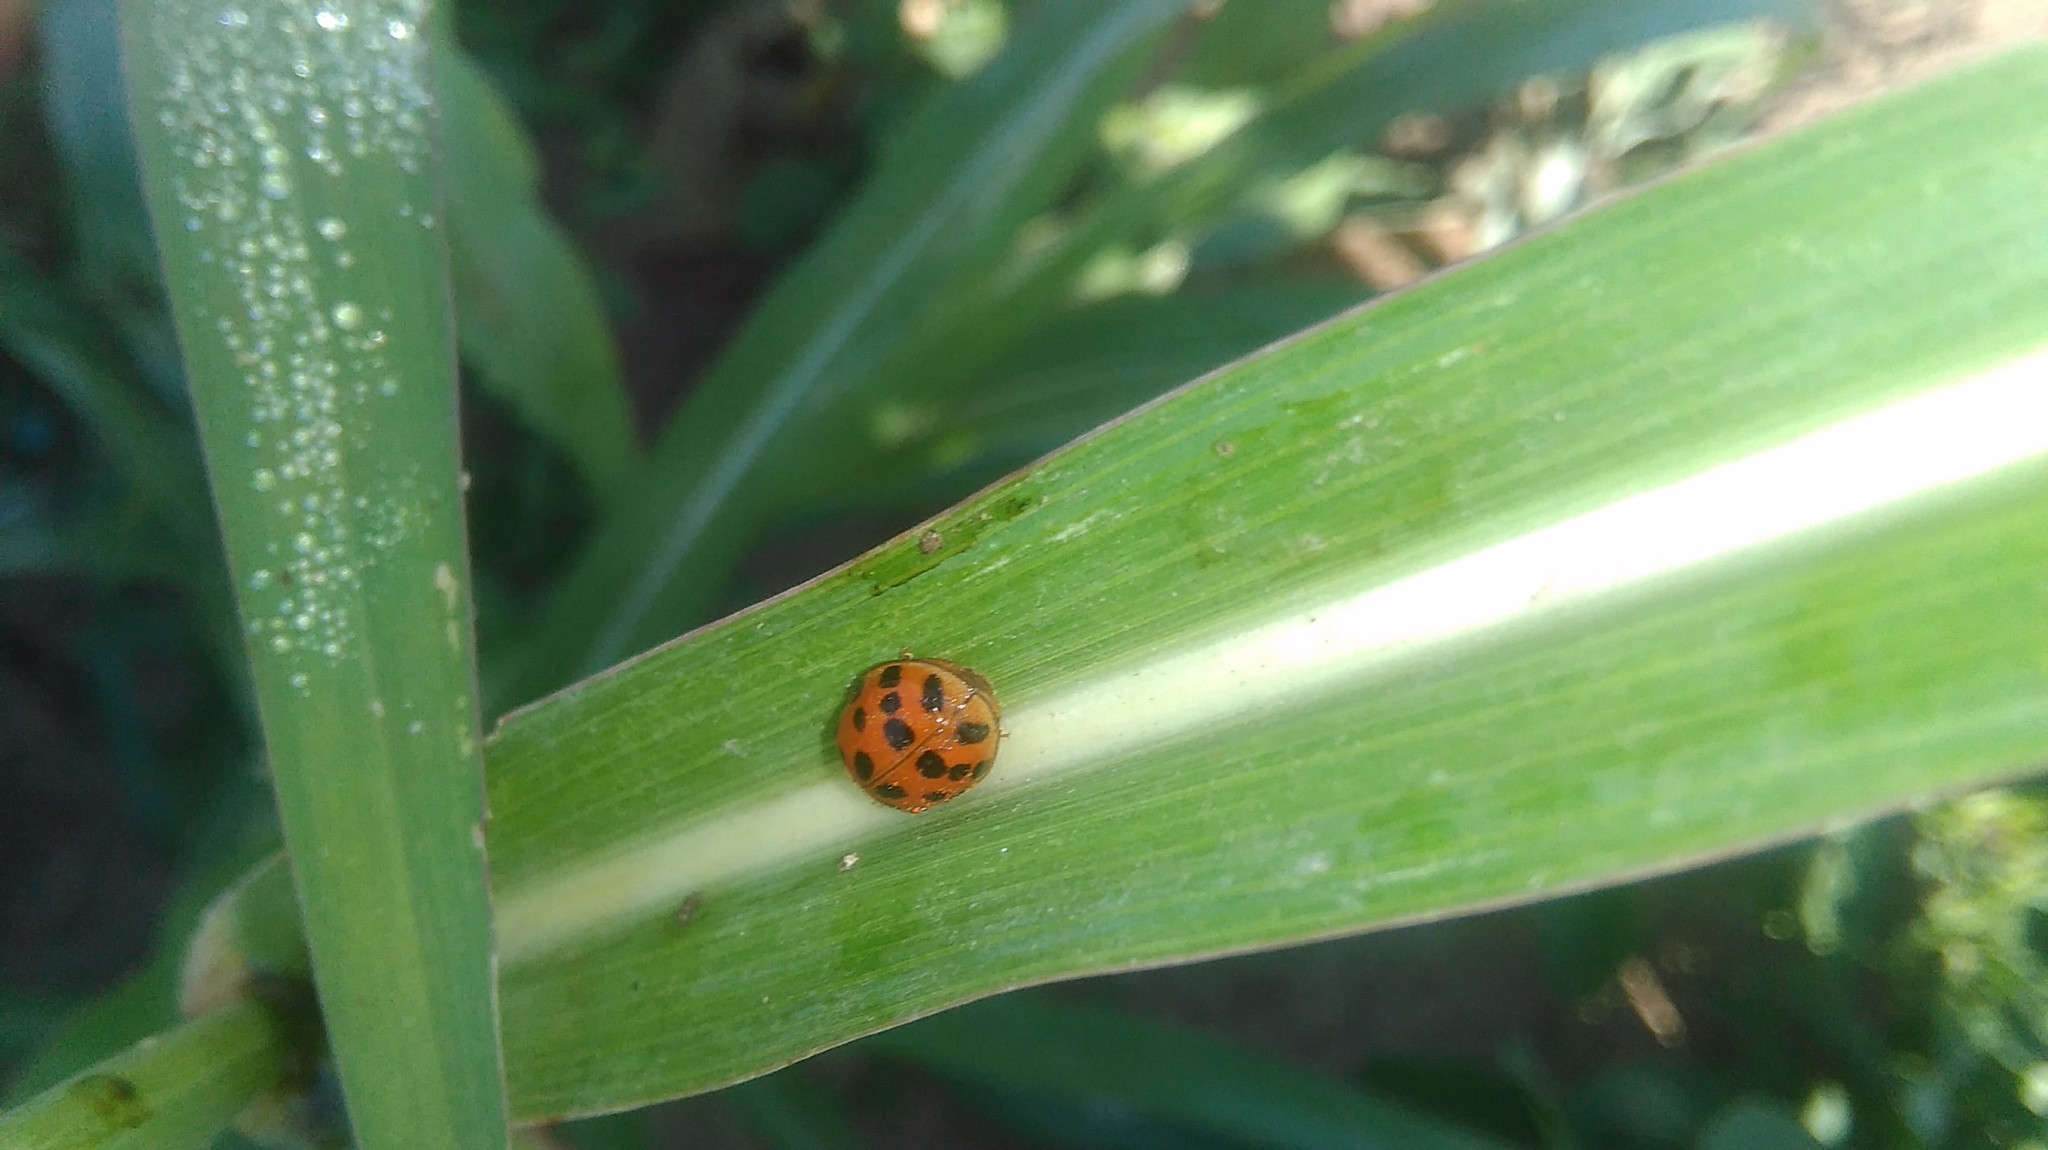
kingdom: Animalia
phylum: Arthropoda
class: Insecta
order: Coleoptera
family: Coccinellidae
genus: Harmonia
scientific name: Harmonia axyridis
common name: Harlequin ladybird
